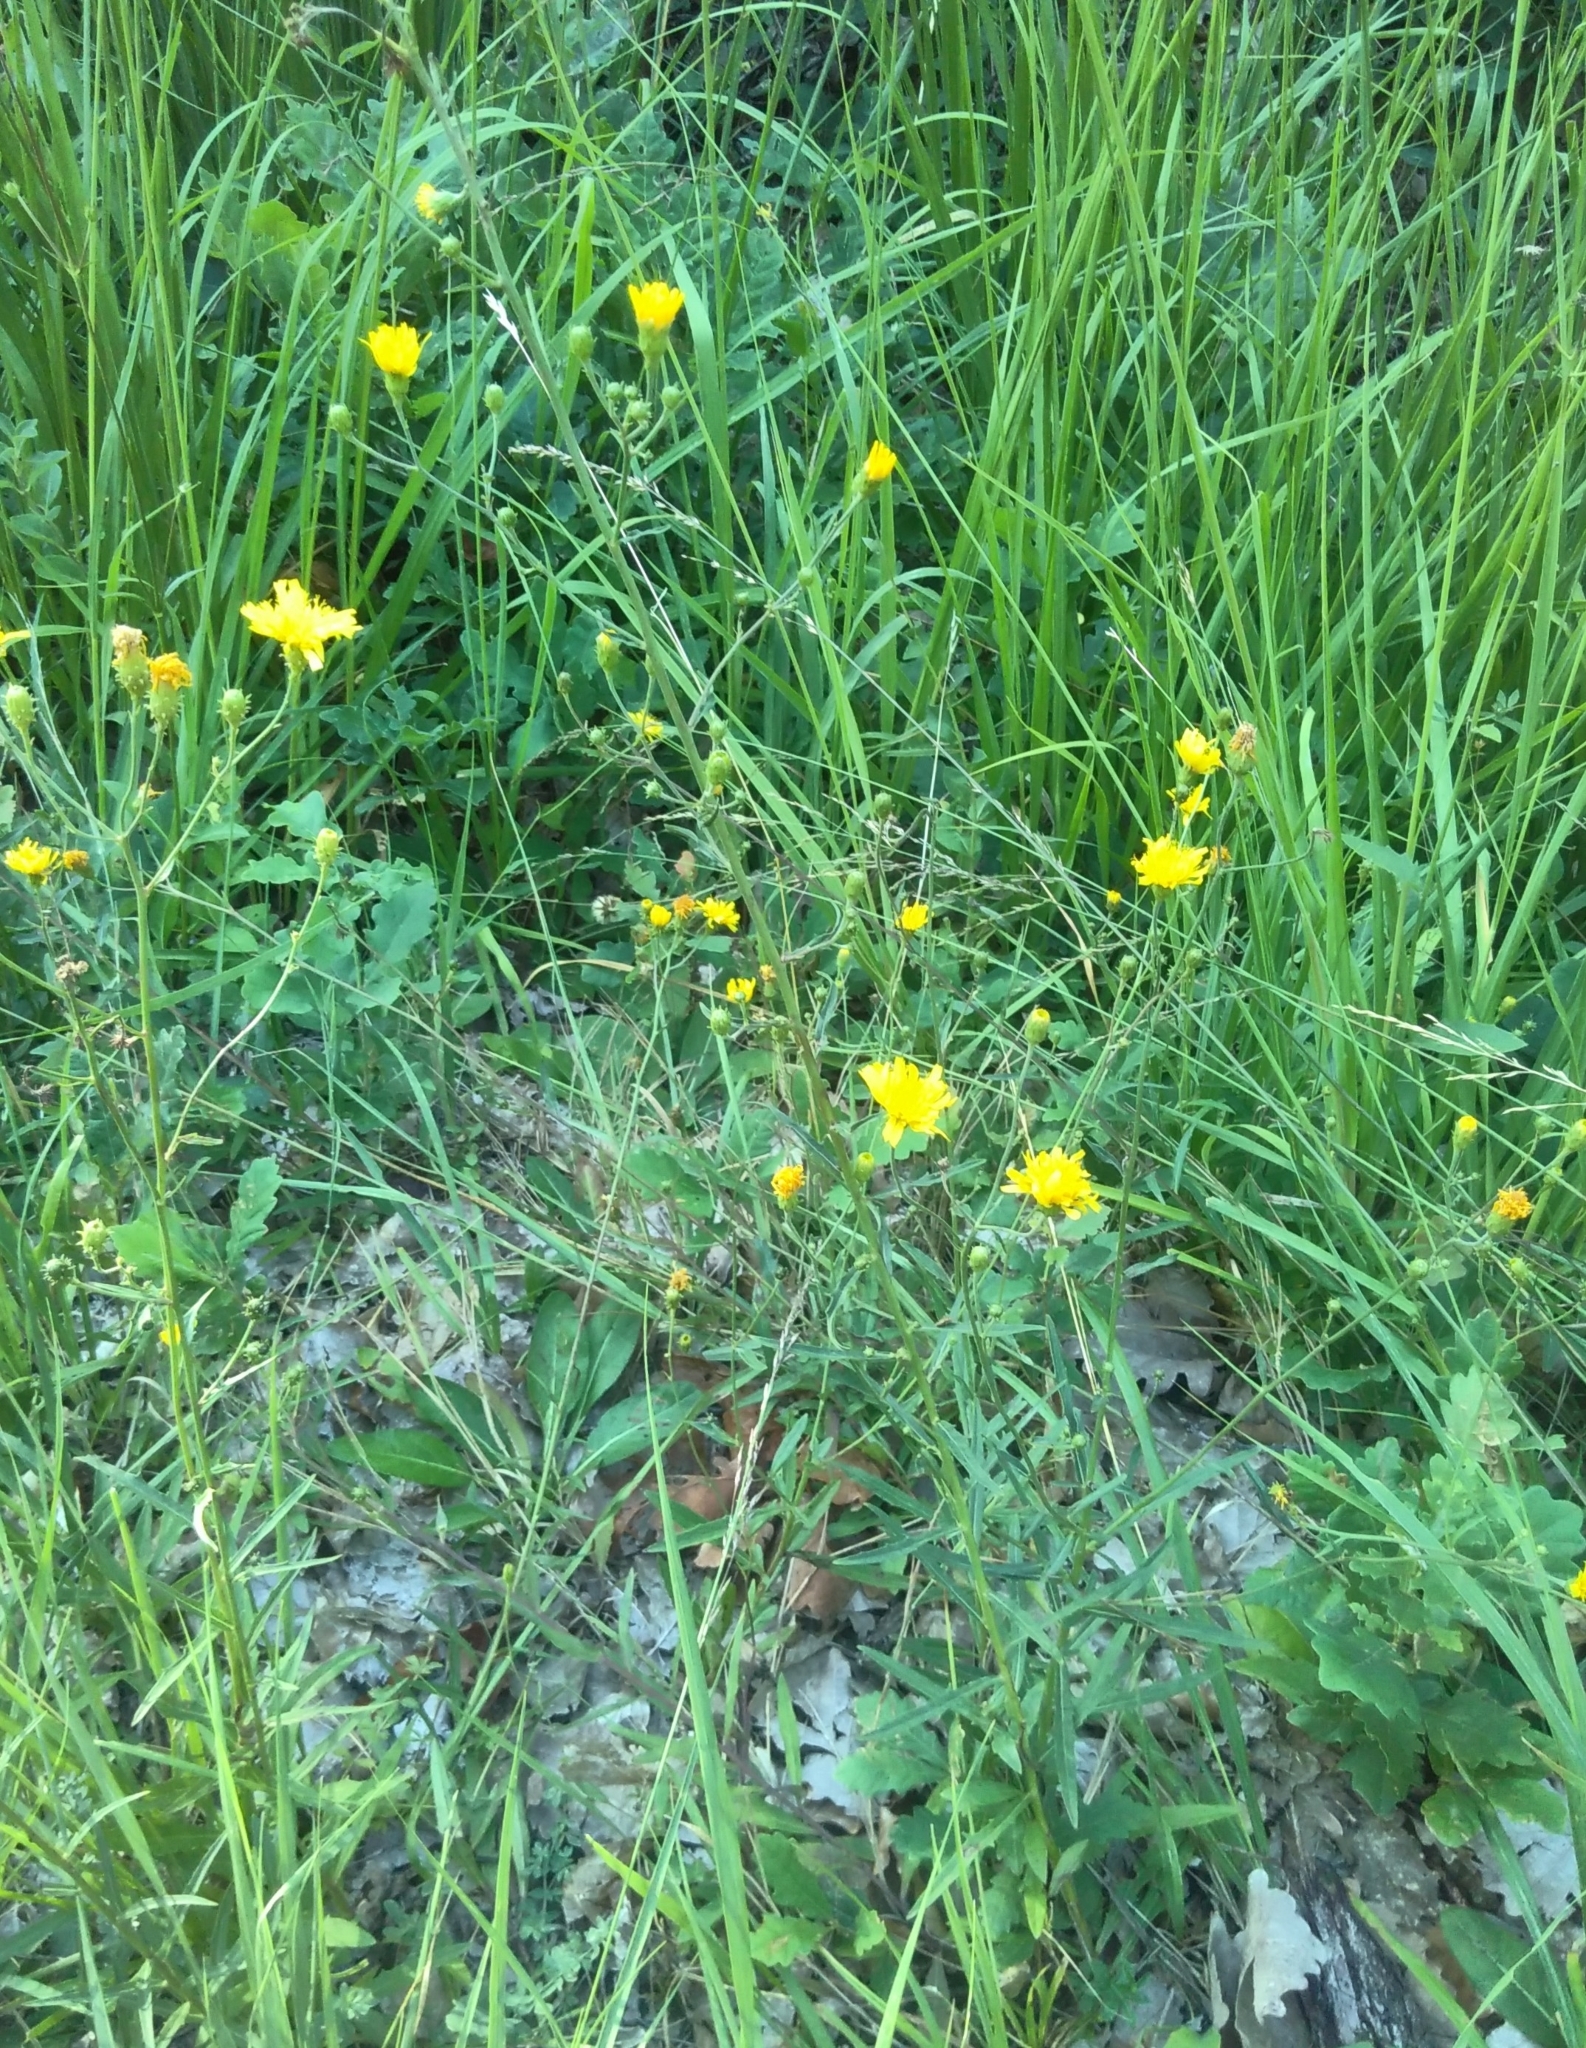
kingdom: Plantae
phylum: Tracheophyta
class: Magnoliopsida
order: Asterales
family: Asteraceae
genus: Hieracium
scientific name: Hieracium umbellatum
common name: Northern hawkweed
